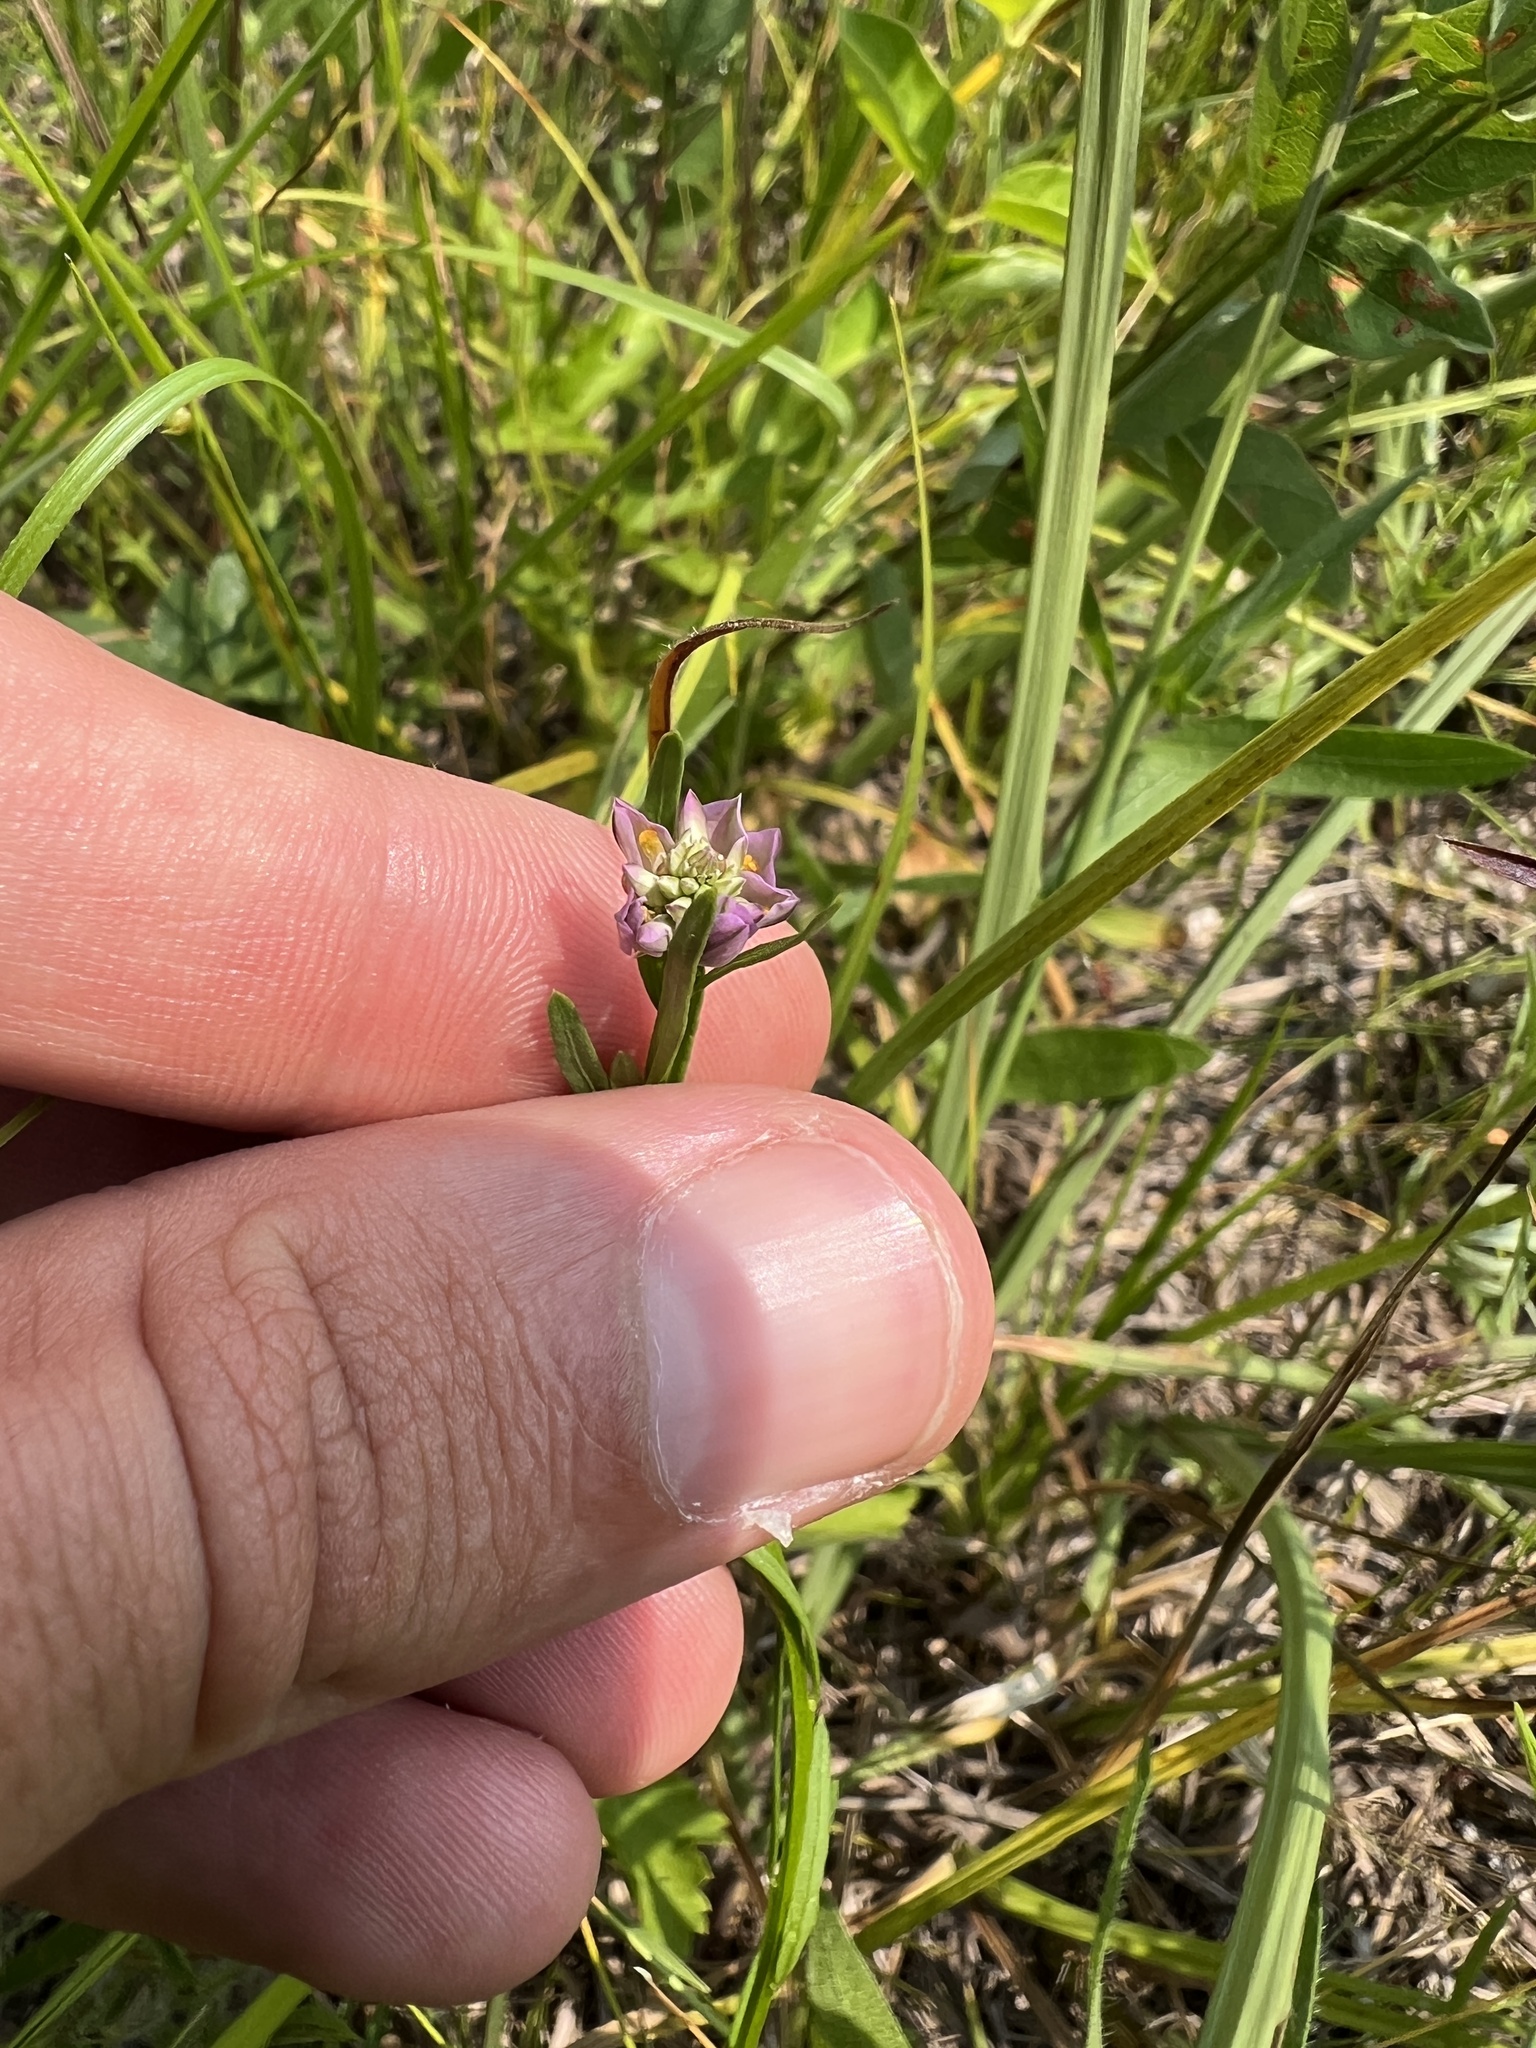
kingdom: Plantae
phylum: Tracheophyta
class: Magnoliopsida
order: Fabales
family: Polygalaceae
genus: Polygala
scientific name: Polygala sanguinea
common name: Blood milkwort
